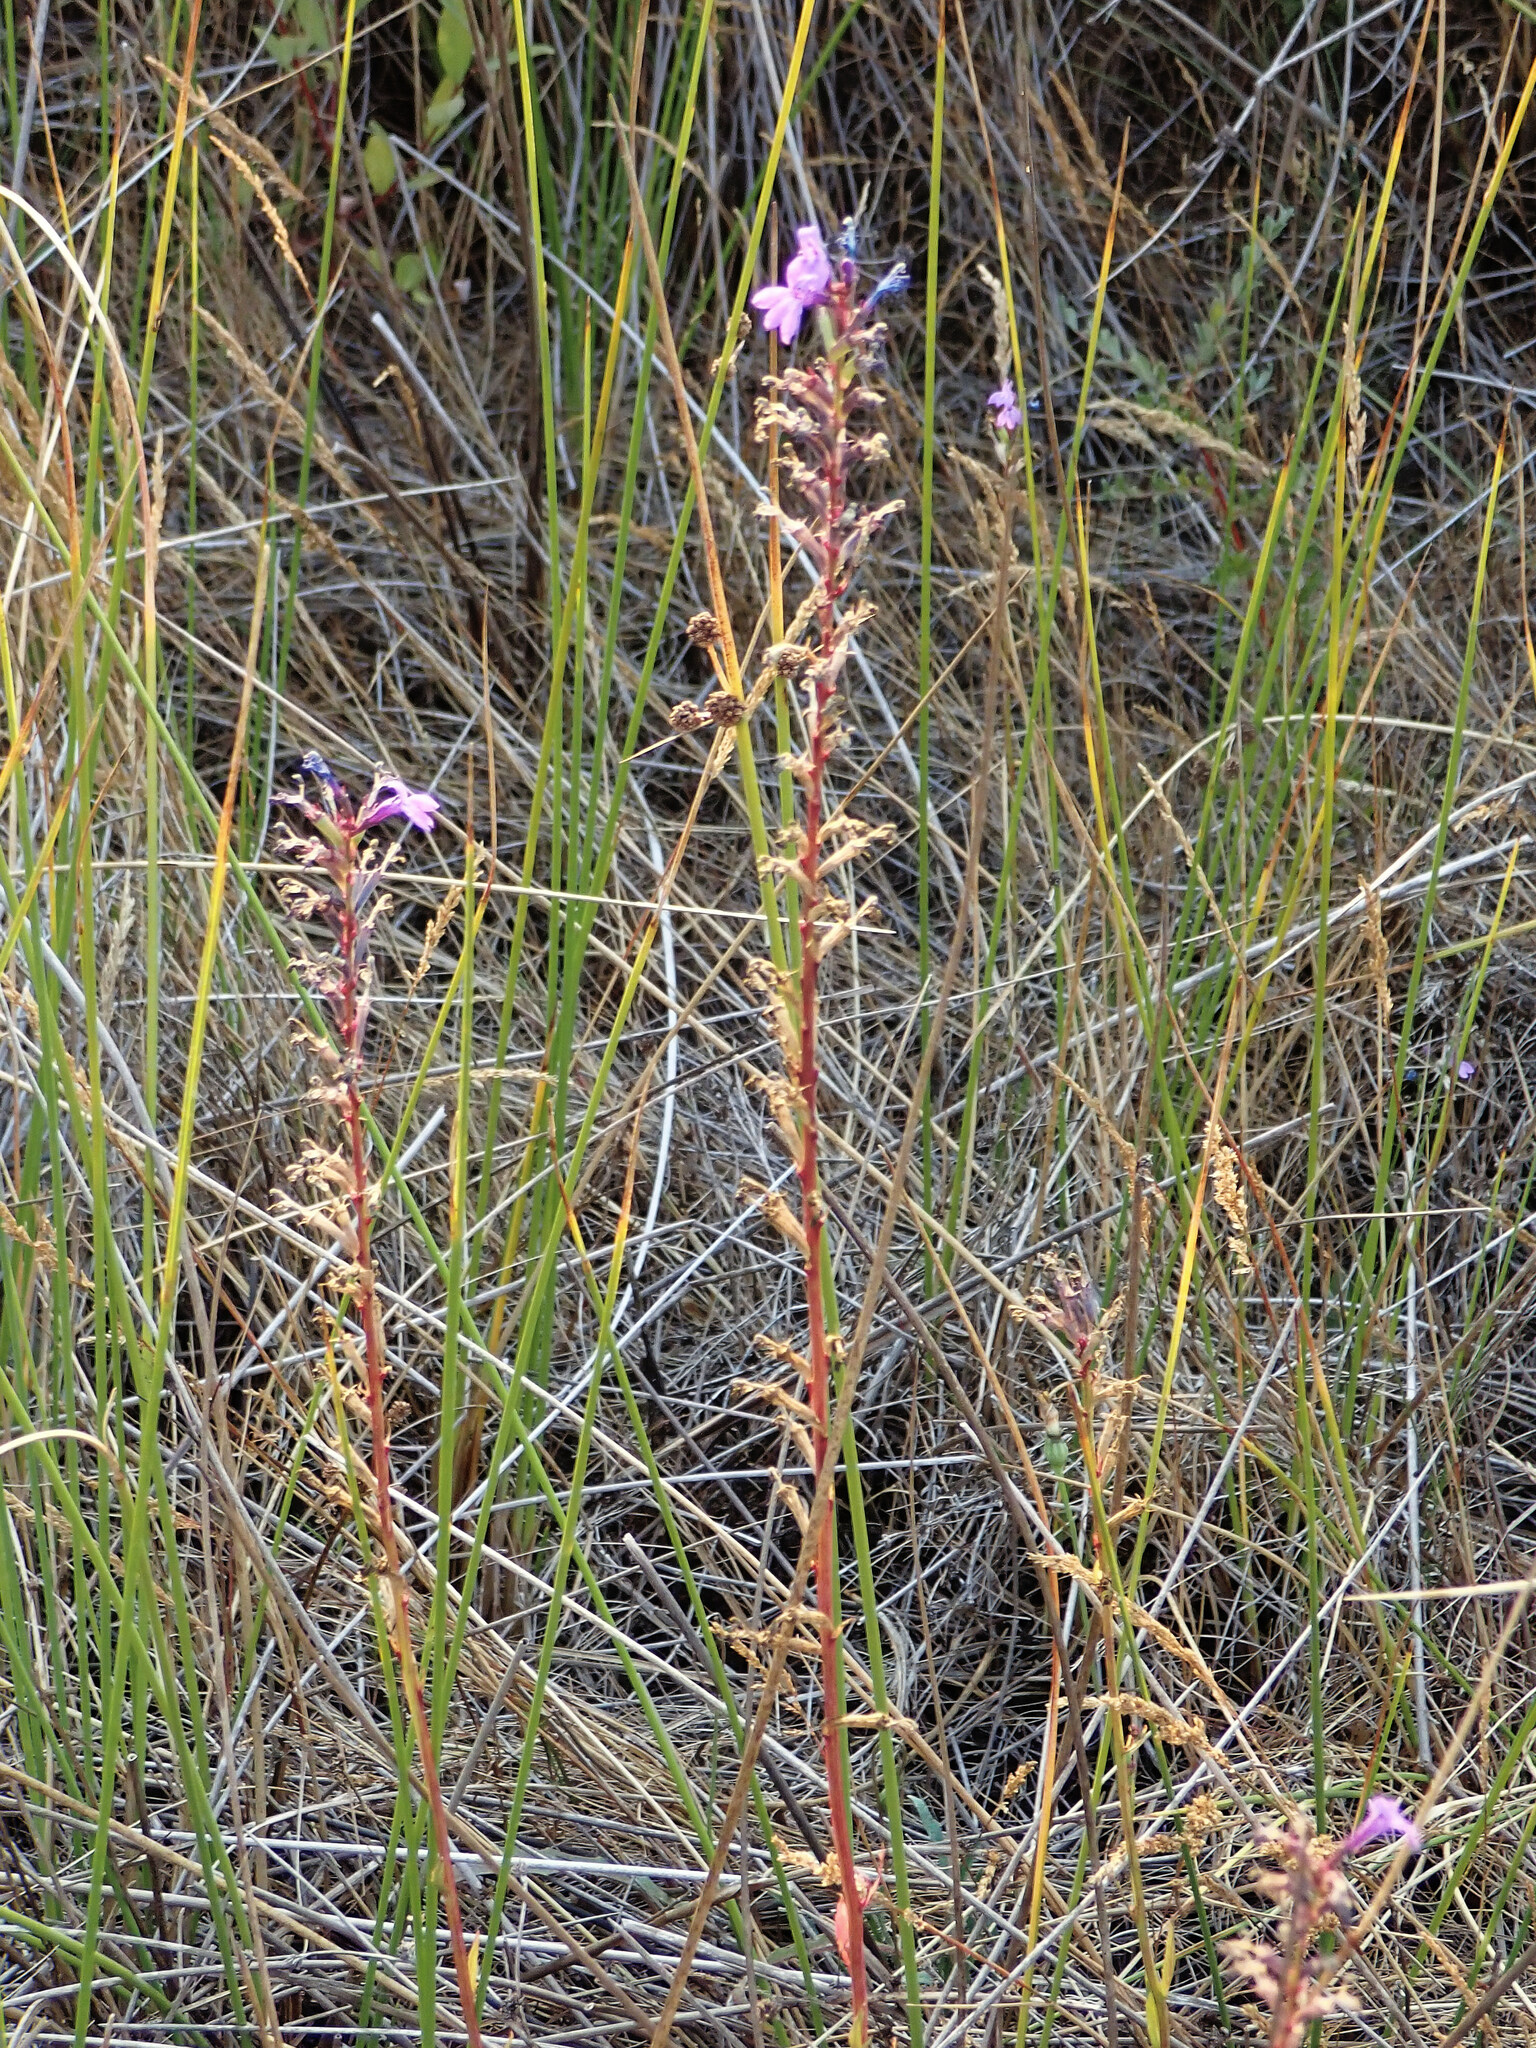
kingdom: Plantae
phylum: Tracheophyta
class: Magnoliopsida
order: Asterales
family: Campanulaceae
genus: Lobelia
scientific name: Lobelia urens
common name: Heath lobelia
